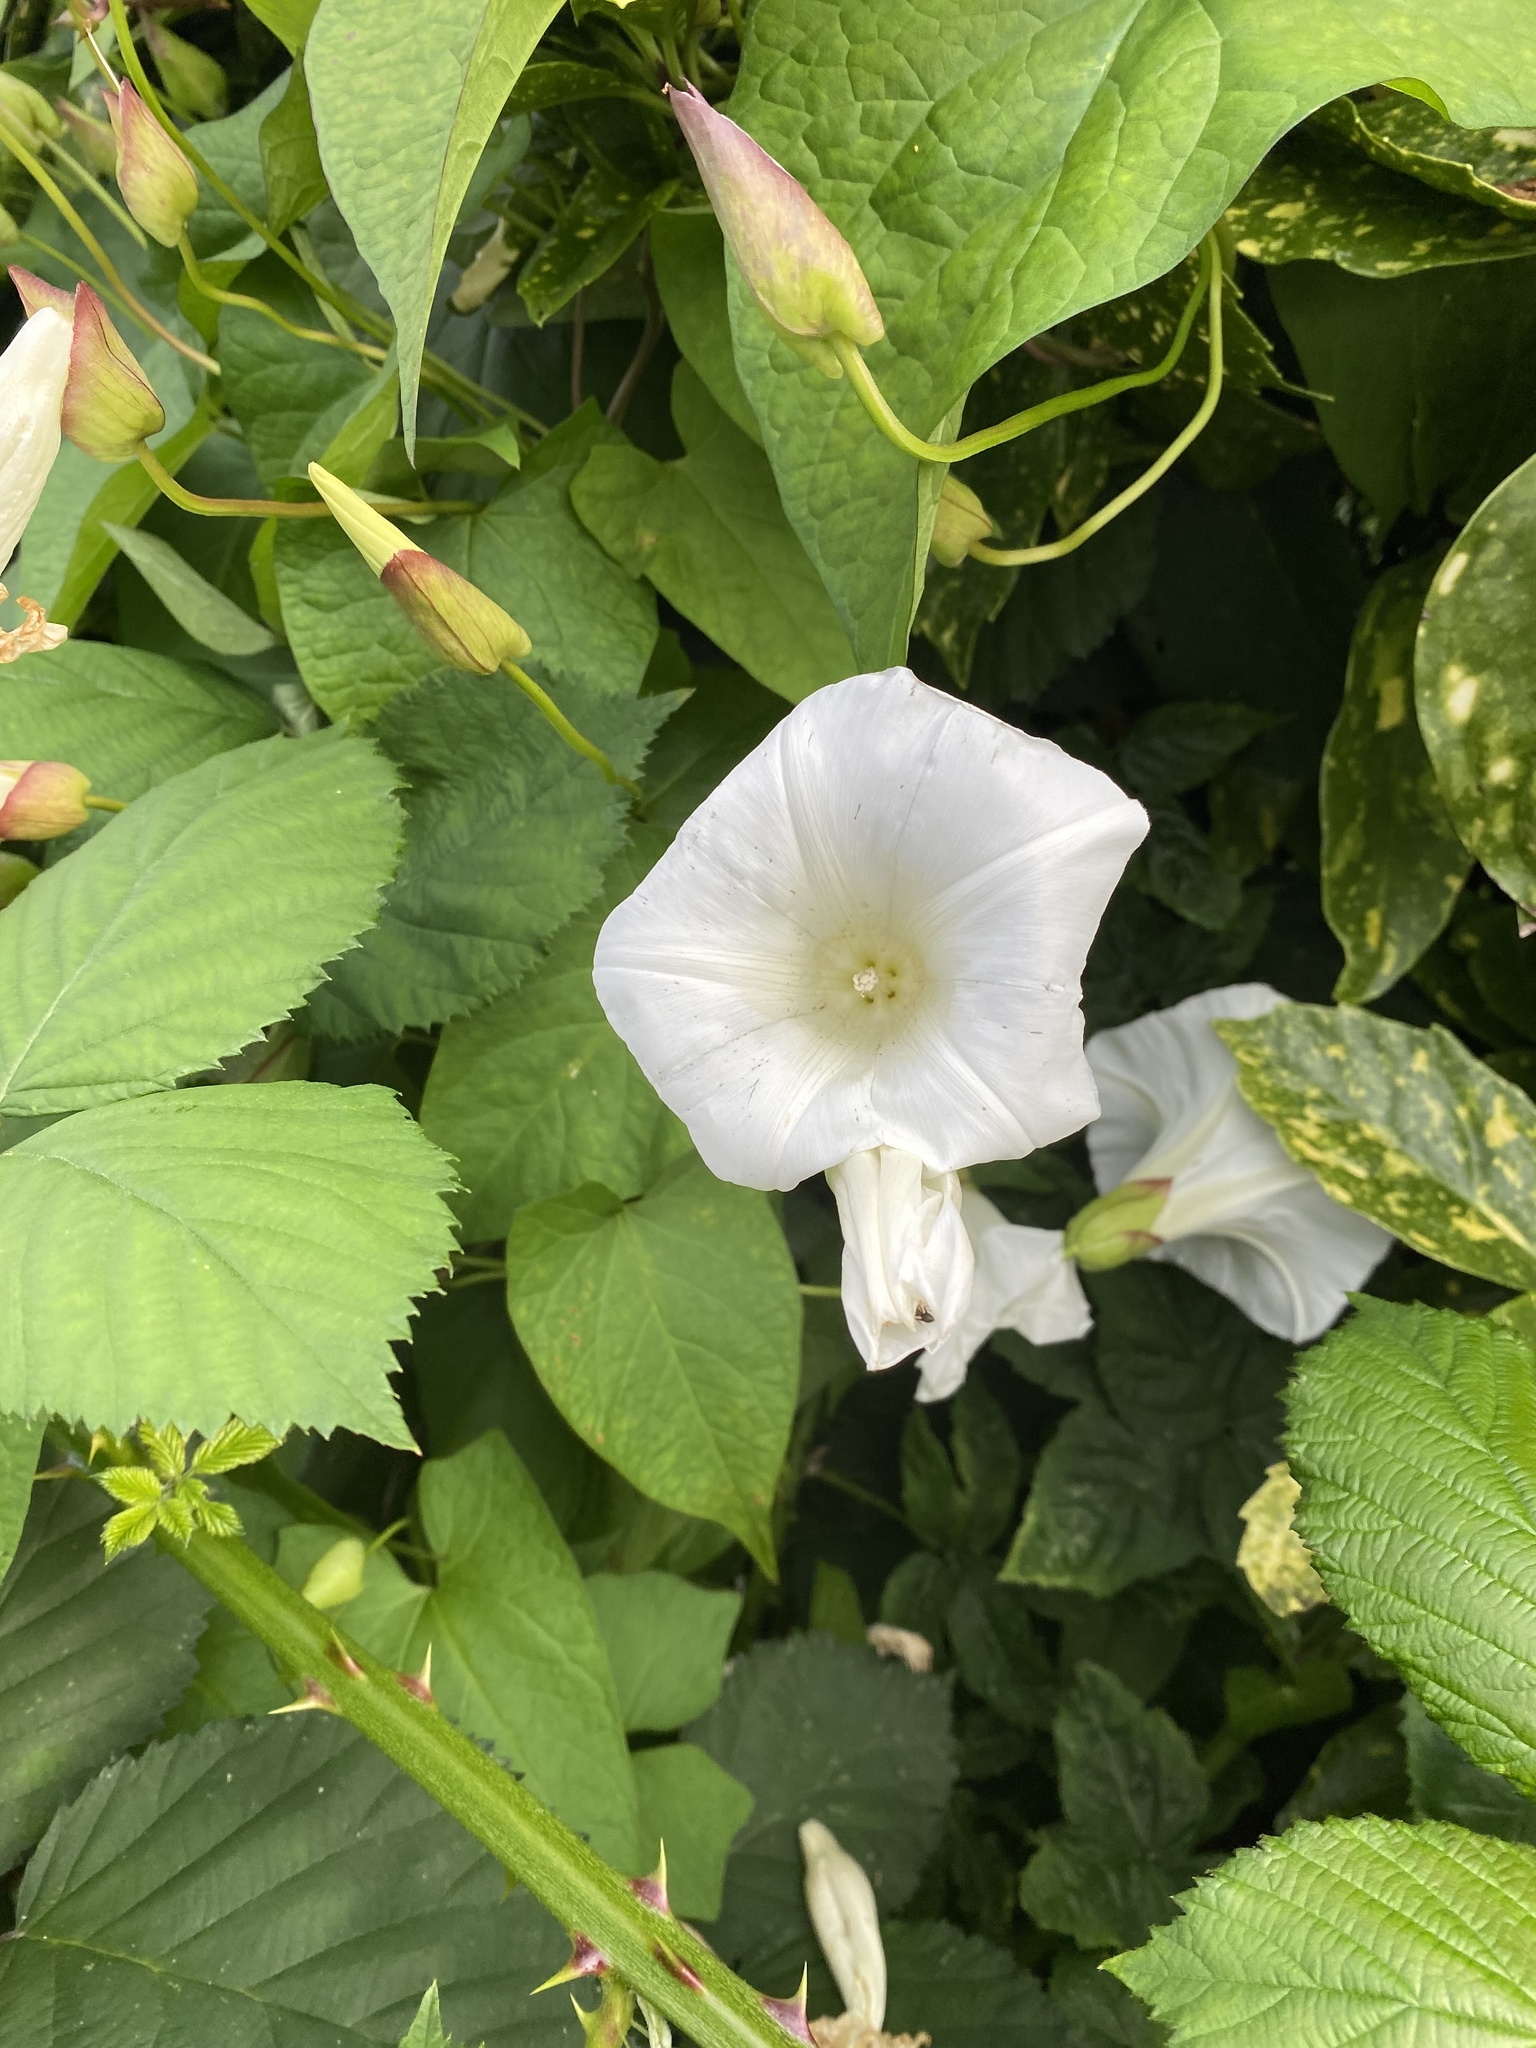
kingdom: Plantae
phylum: Tracheophyta
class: Magnoliopsida
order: Solanales
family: Convolvulaceae
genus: Calystegia
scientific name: Calystegia silvatica
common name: Large bindweed
